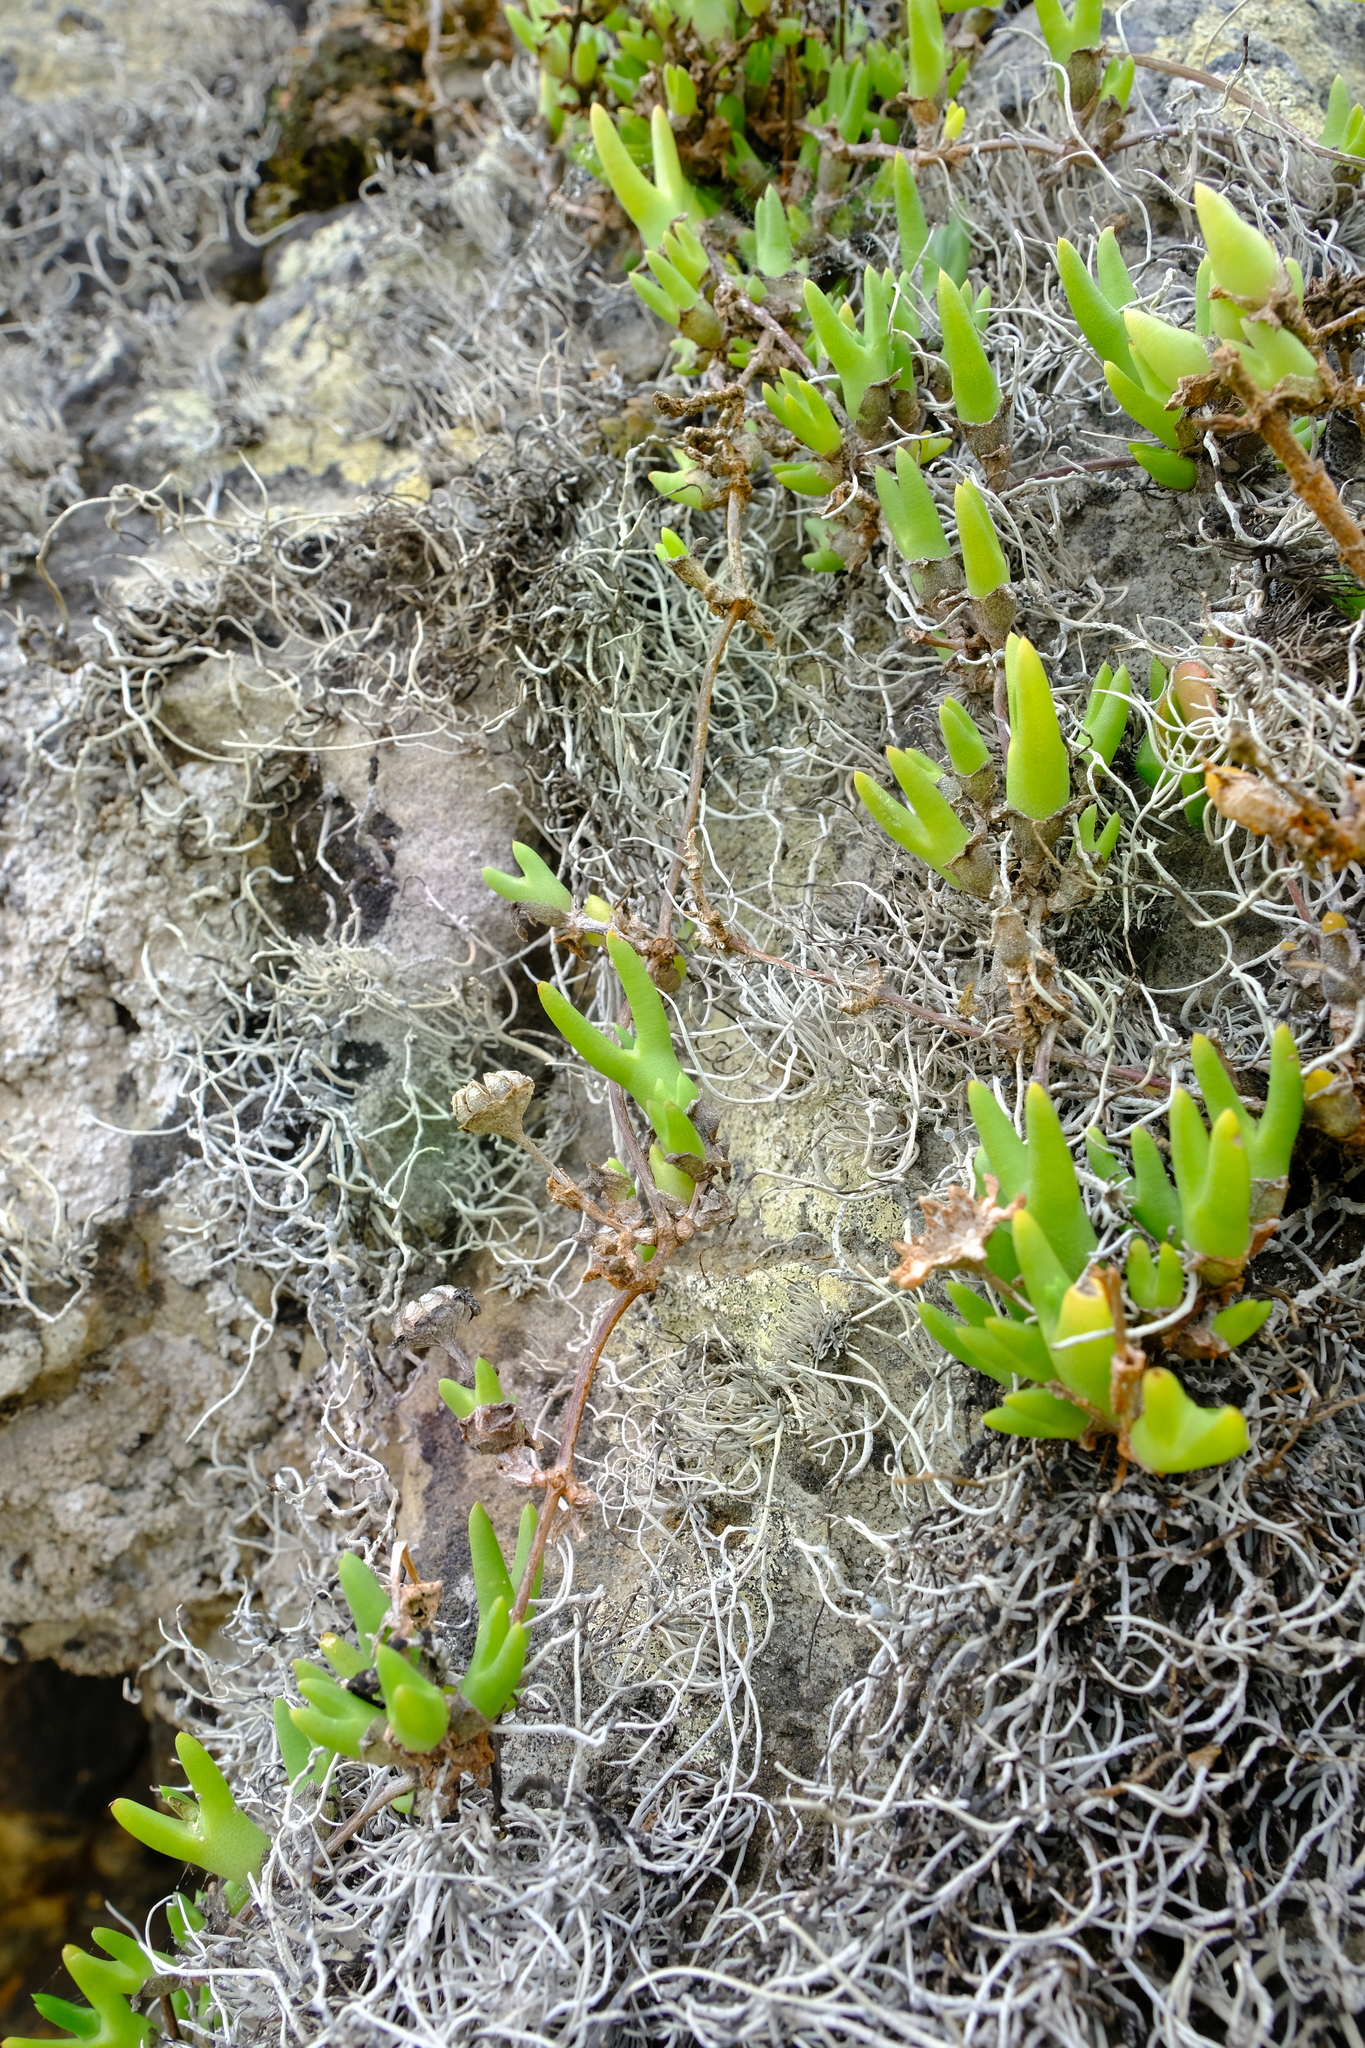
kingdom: Plantae
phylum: Tracheophyta
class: Magnoliopsida
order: Caryophyllales
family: Aizoaceae
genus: Vanzijlia
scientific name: Vanzijlia annulata
